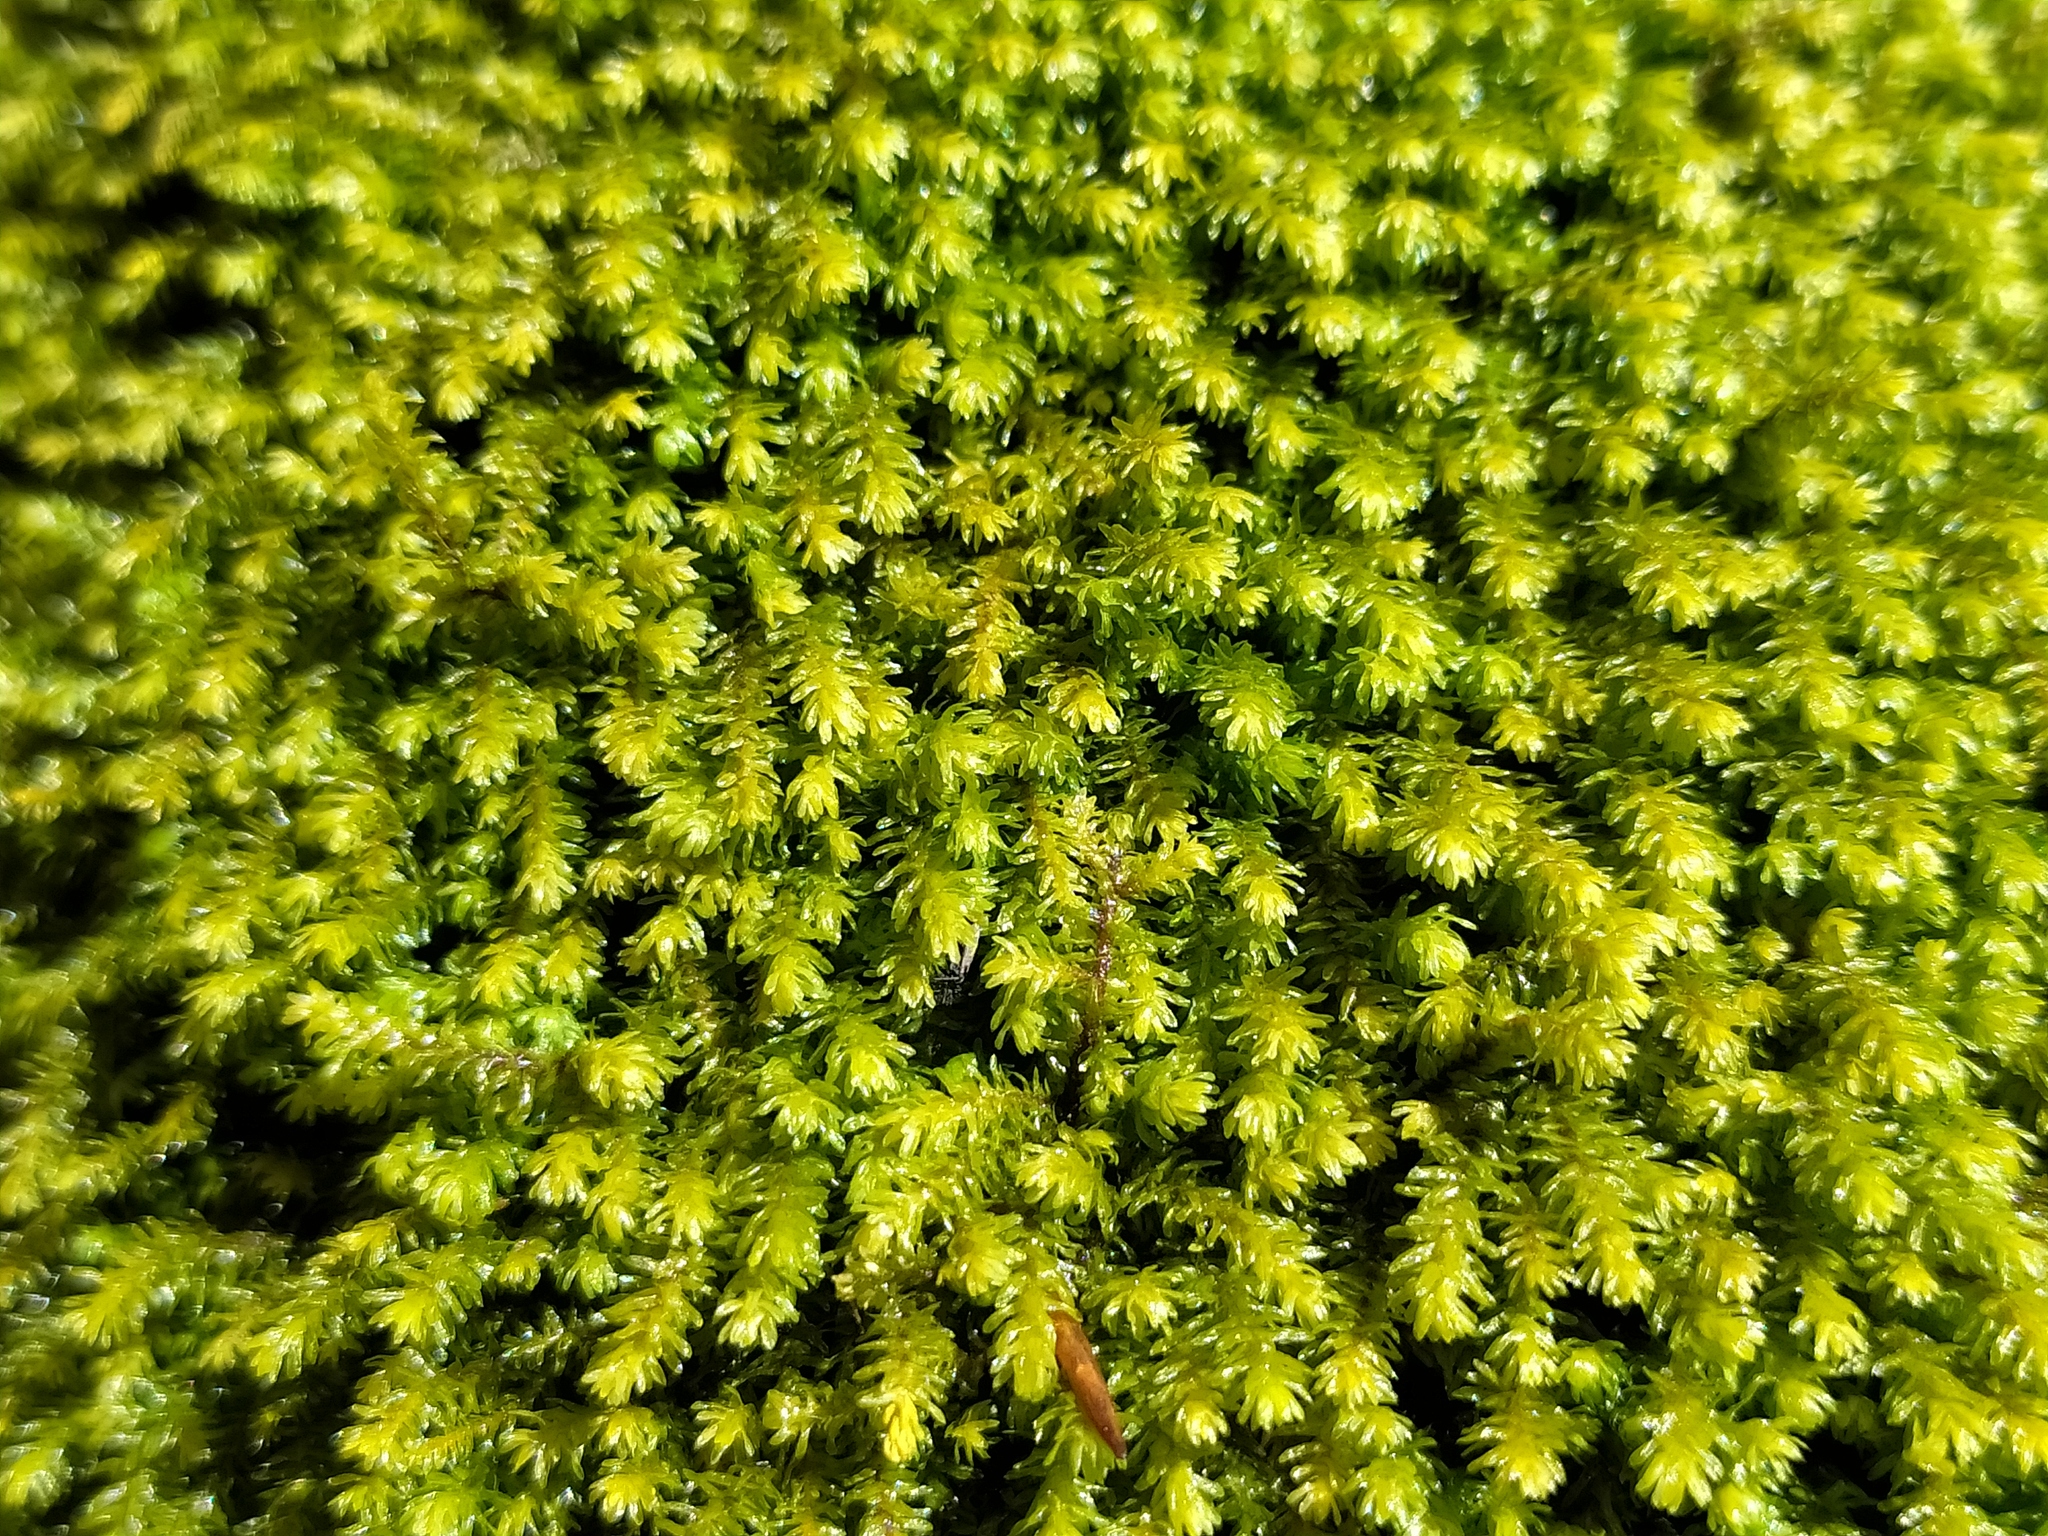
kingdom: Plantae
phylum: Bryophyta
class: Bryopsida
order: Hypnales
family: Anomodontaceae
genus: Anomodontopsis
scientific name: Anomodontopsis rugelii
